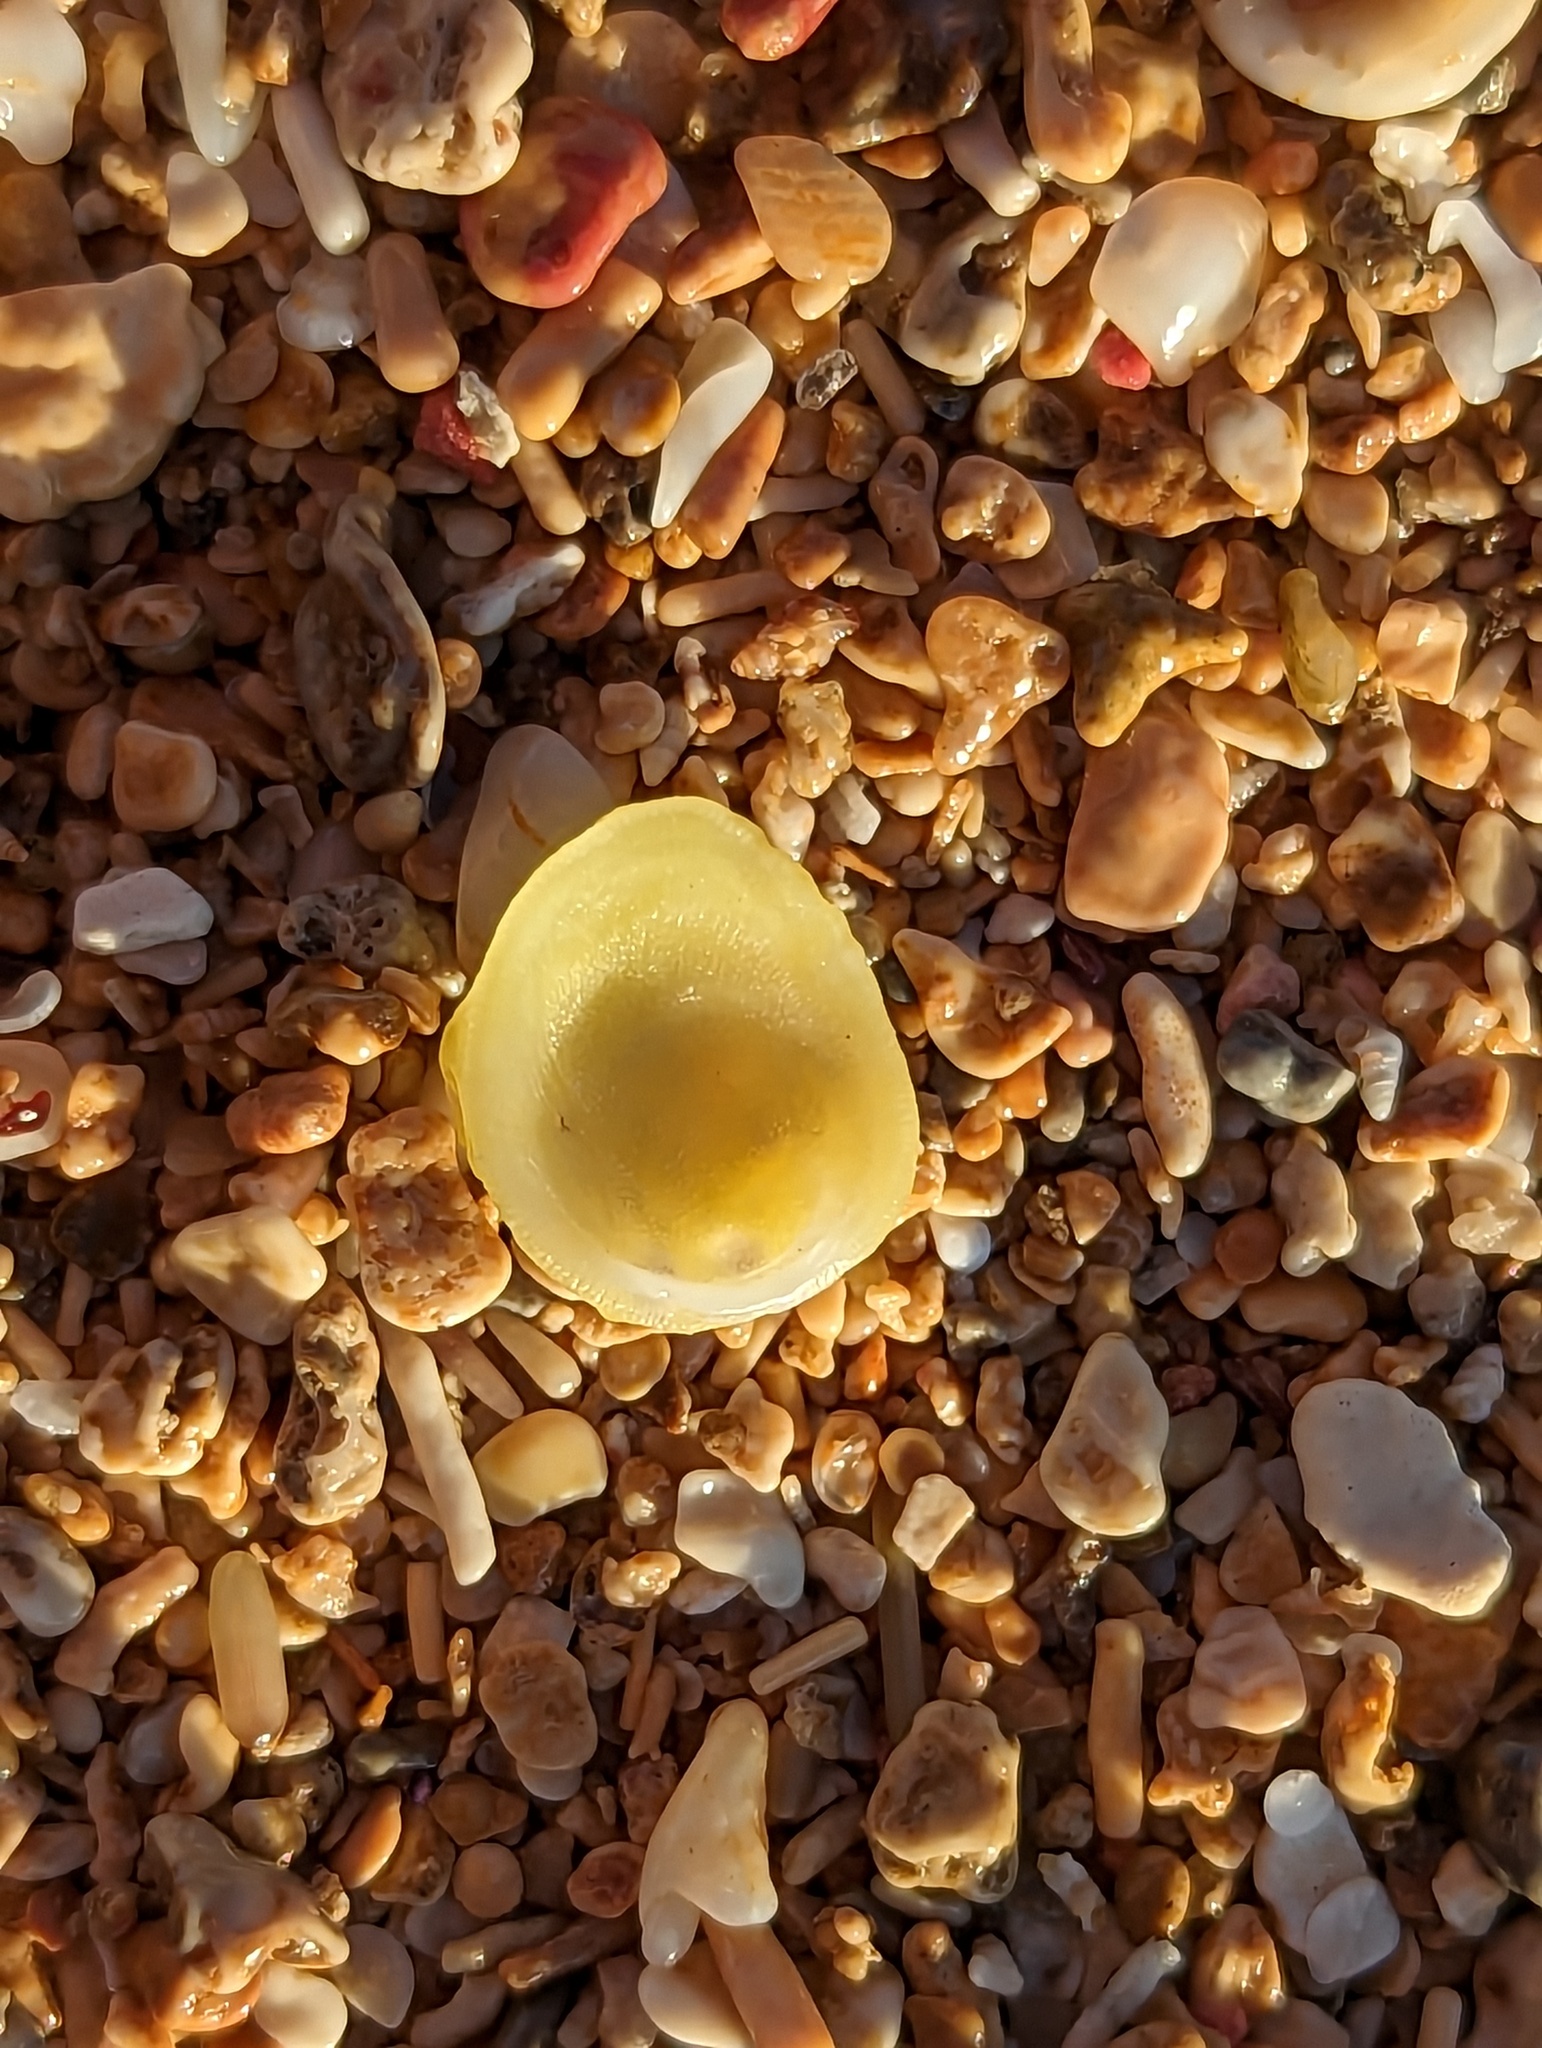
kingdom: Animalia
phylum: Mollusca
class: Bivalvia
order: Venerida
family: Chamidae
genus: Chama
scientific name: Chama macerophylla
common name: Leafy jewelbox
